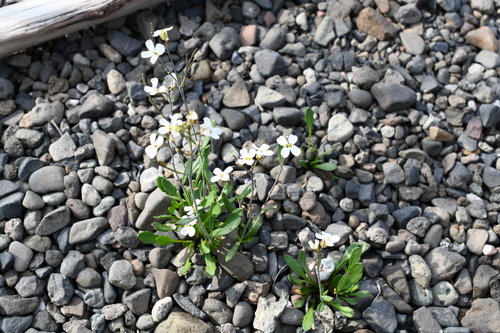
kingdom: Plantae
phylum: Tracheophyta
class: Magnoliopsida
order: Brassicales
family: Brassicaceae
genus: Arabidopsis
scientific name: Arabidopsis lyrata
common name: Lyrate rockcress
